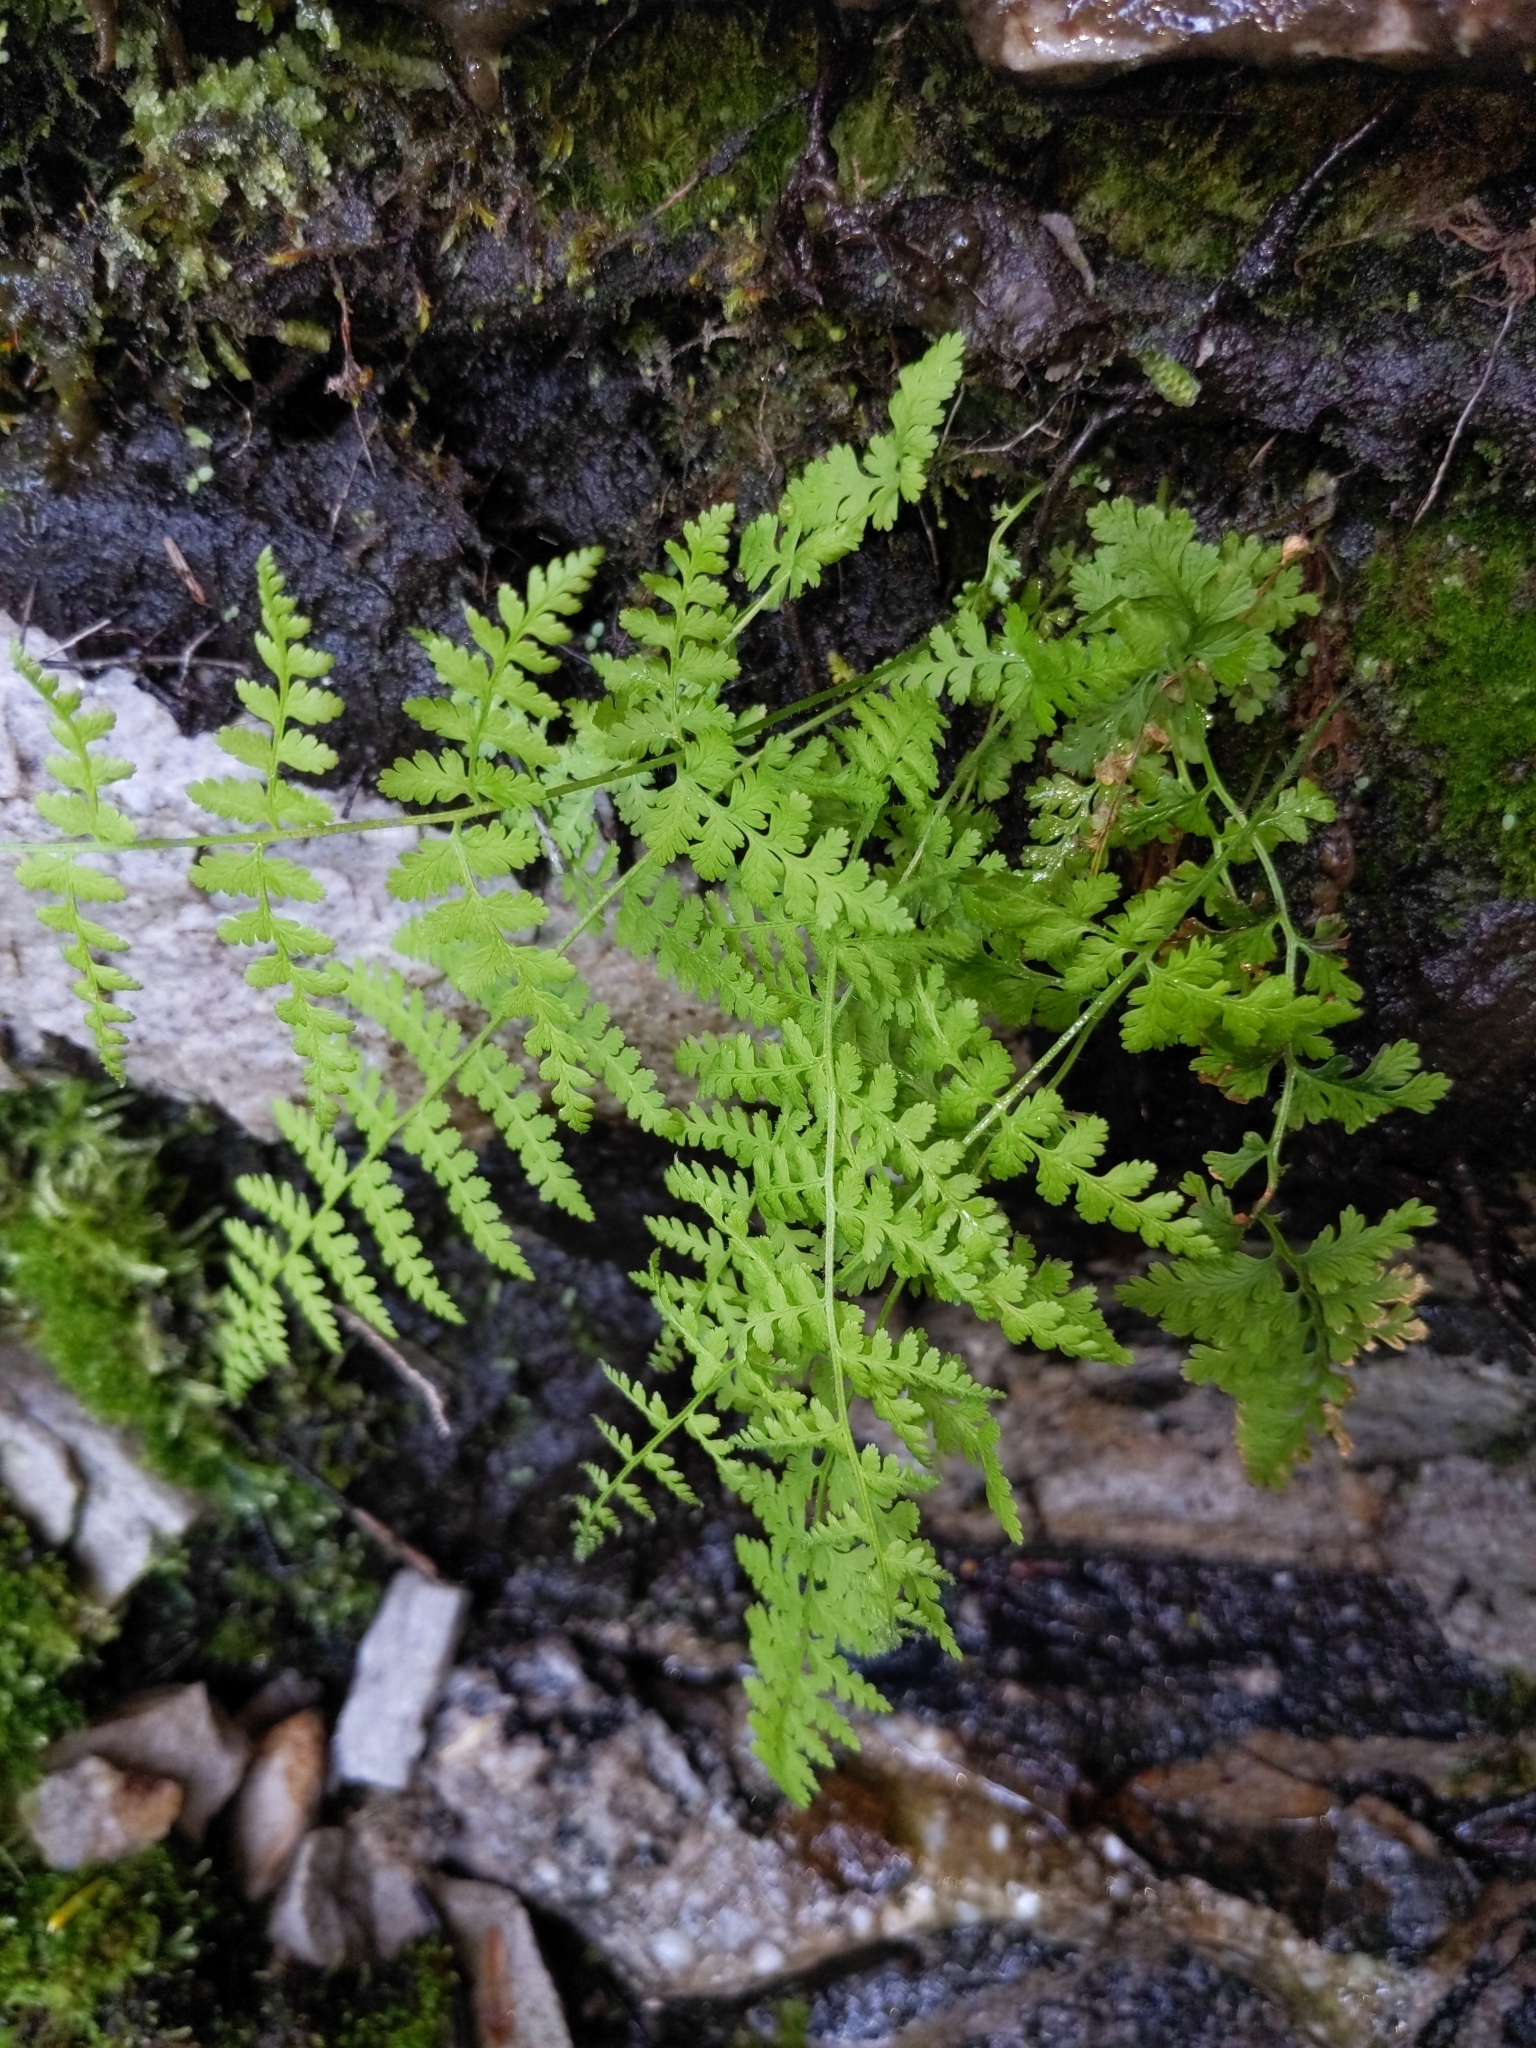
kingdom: Plantae
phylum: Tracheophyta
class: Polypodiopsida
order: Polypodiales
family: Dennstaedtiaceae
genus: Sitobolium
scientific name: Sitobolium punctilobum
